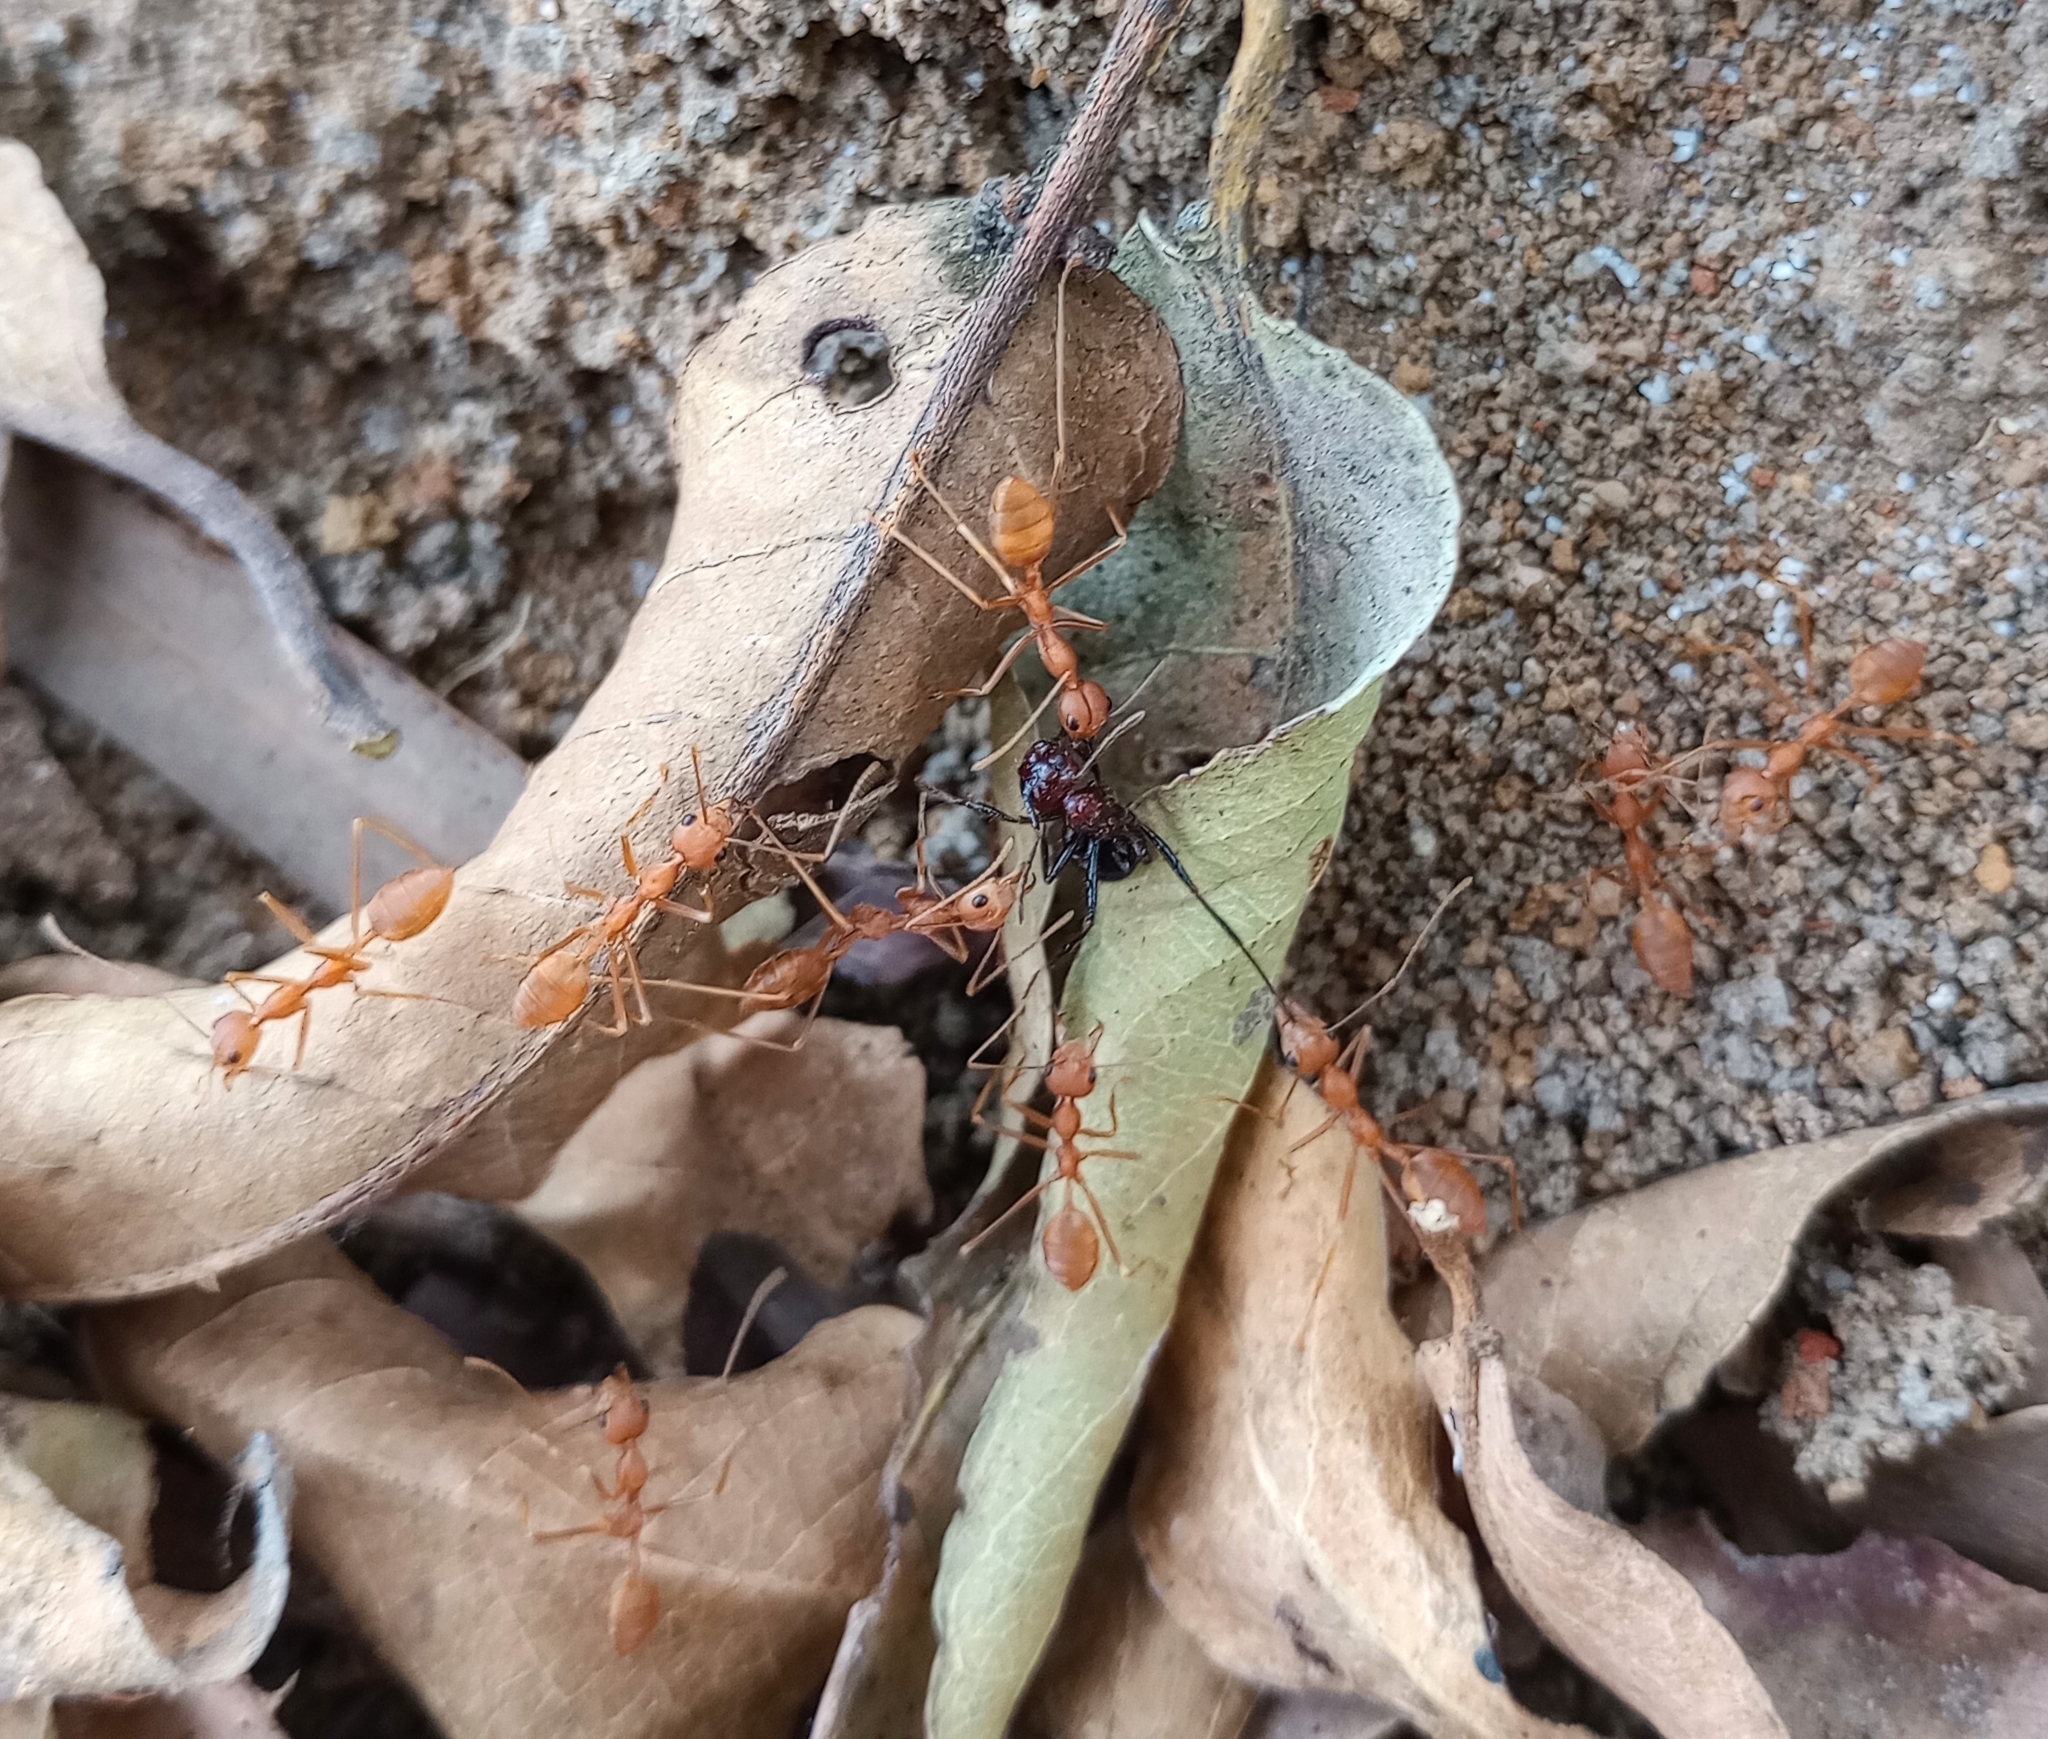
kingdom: Animalia
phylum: Arthropoda
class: Insecta
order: Hymenoptera
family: Formicidae
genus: Oecophylla
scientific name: Oecophylla smaragdina
